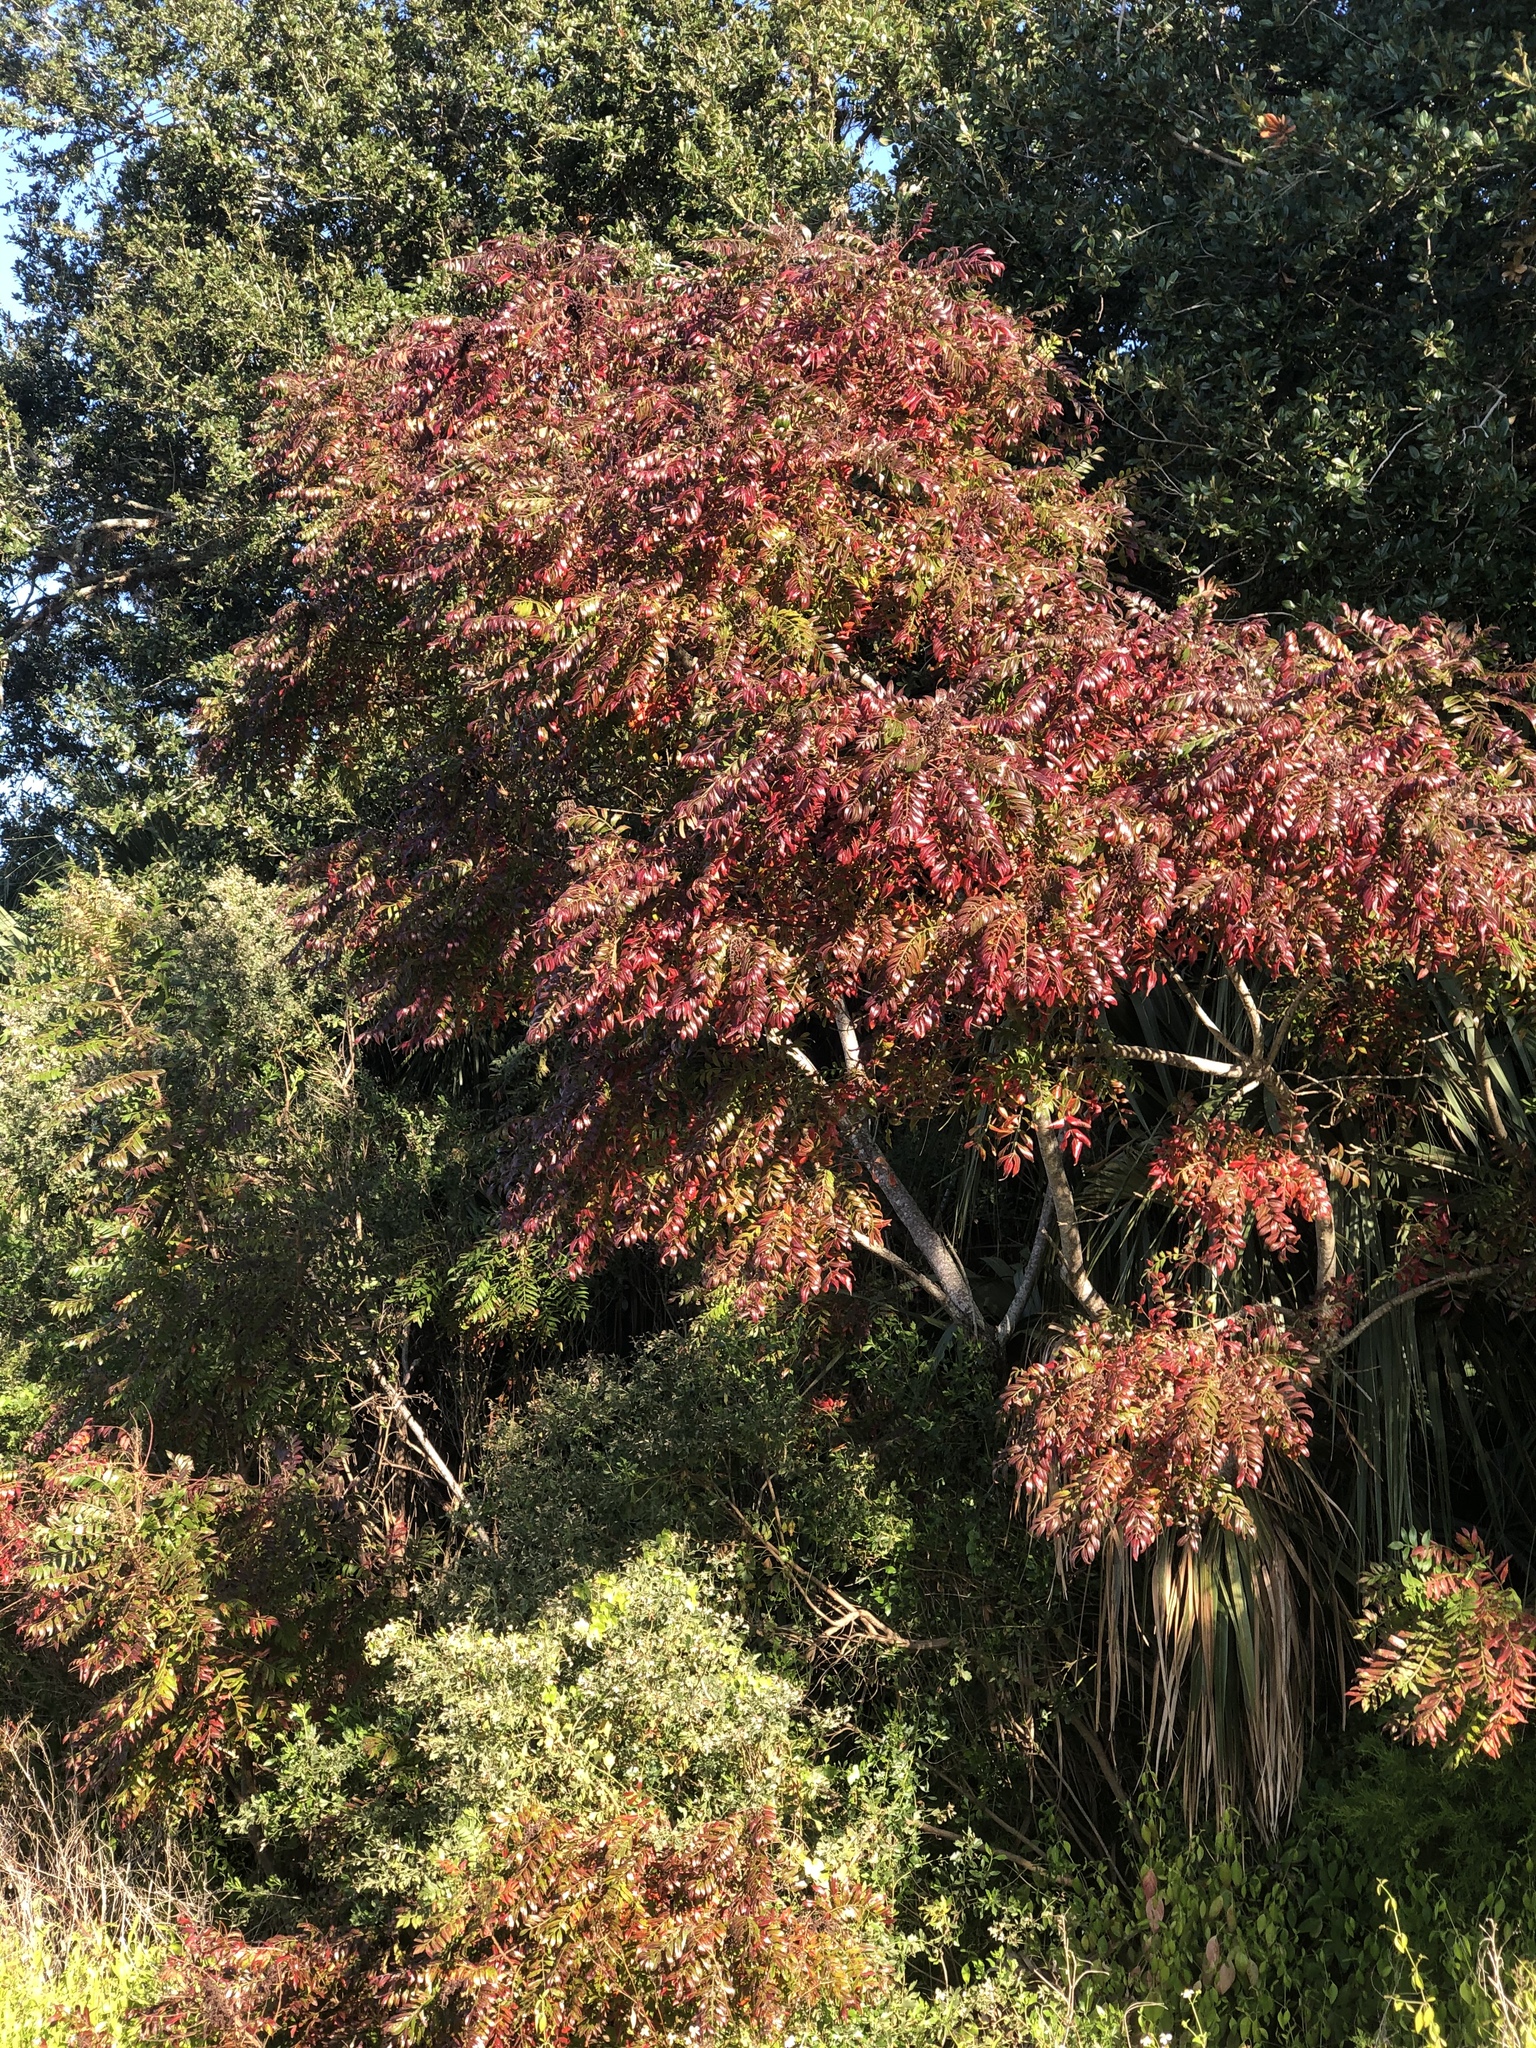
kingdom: Plantae
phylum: Tracheophyta
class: Magnoliopsida
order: Sapindales
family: Anacardiaceae
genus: Rhus
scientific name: Rhus copallina
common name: Shining sumac
